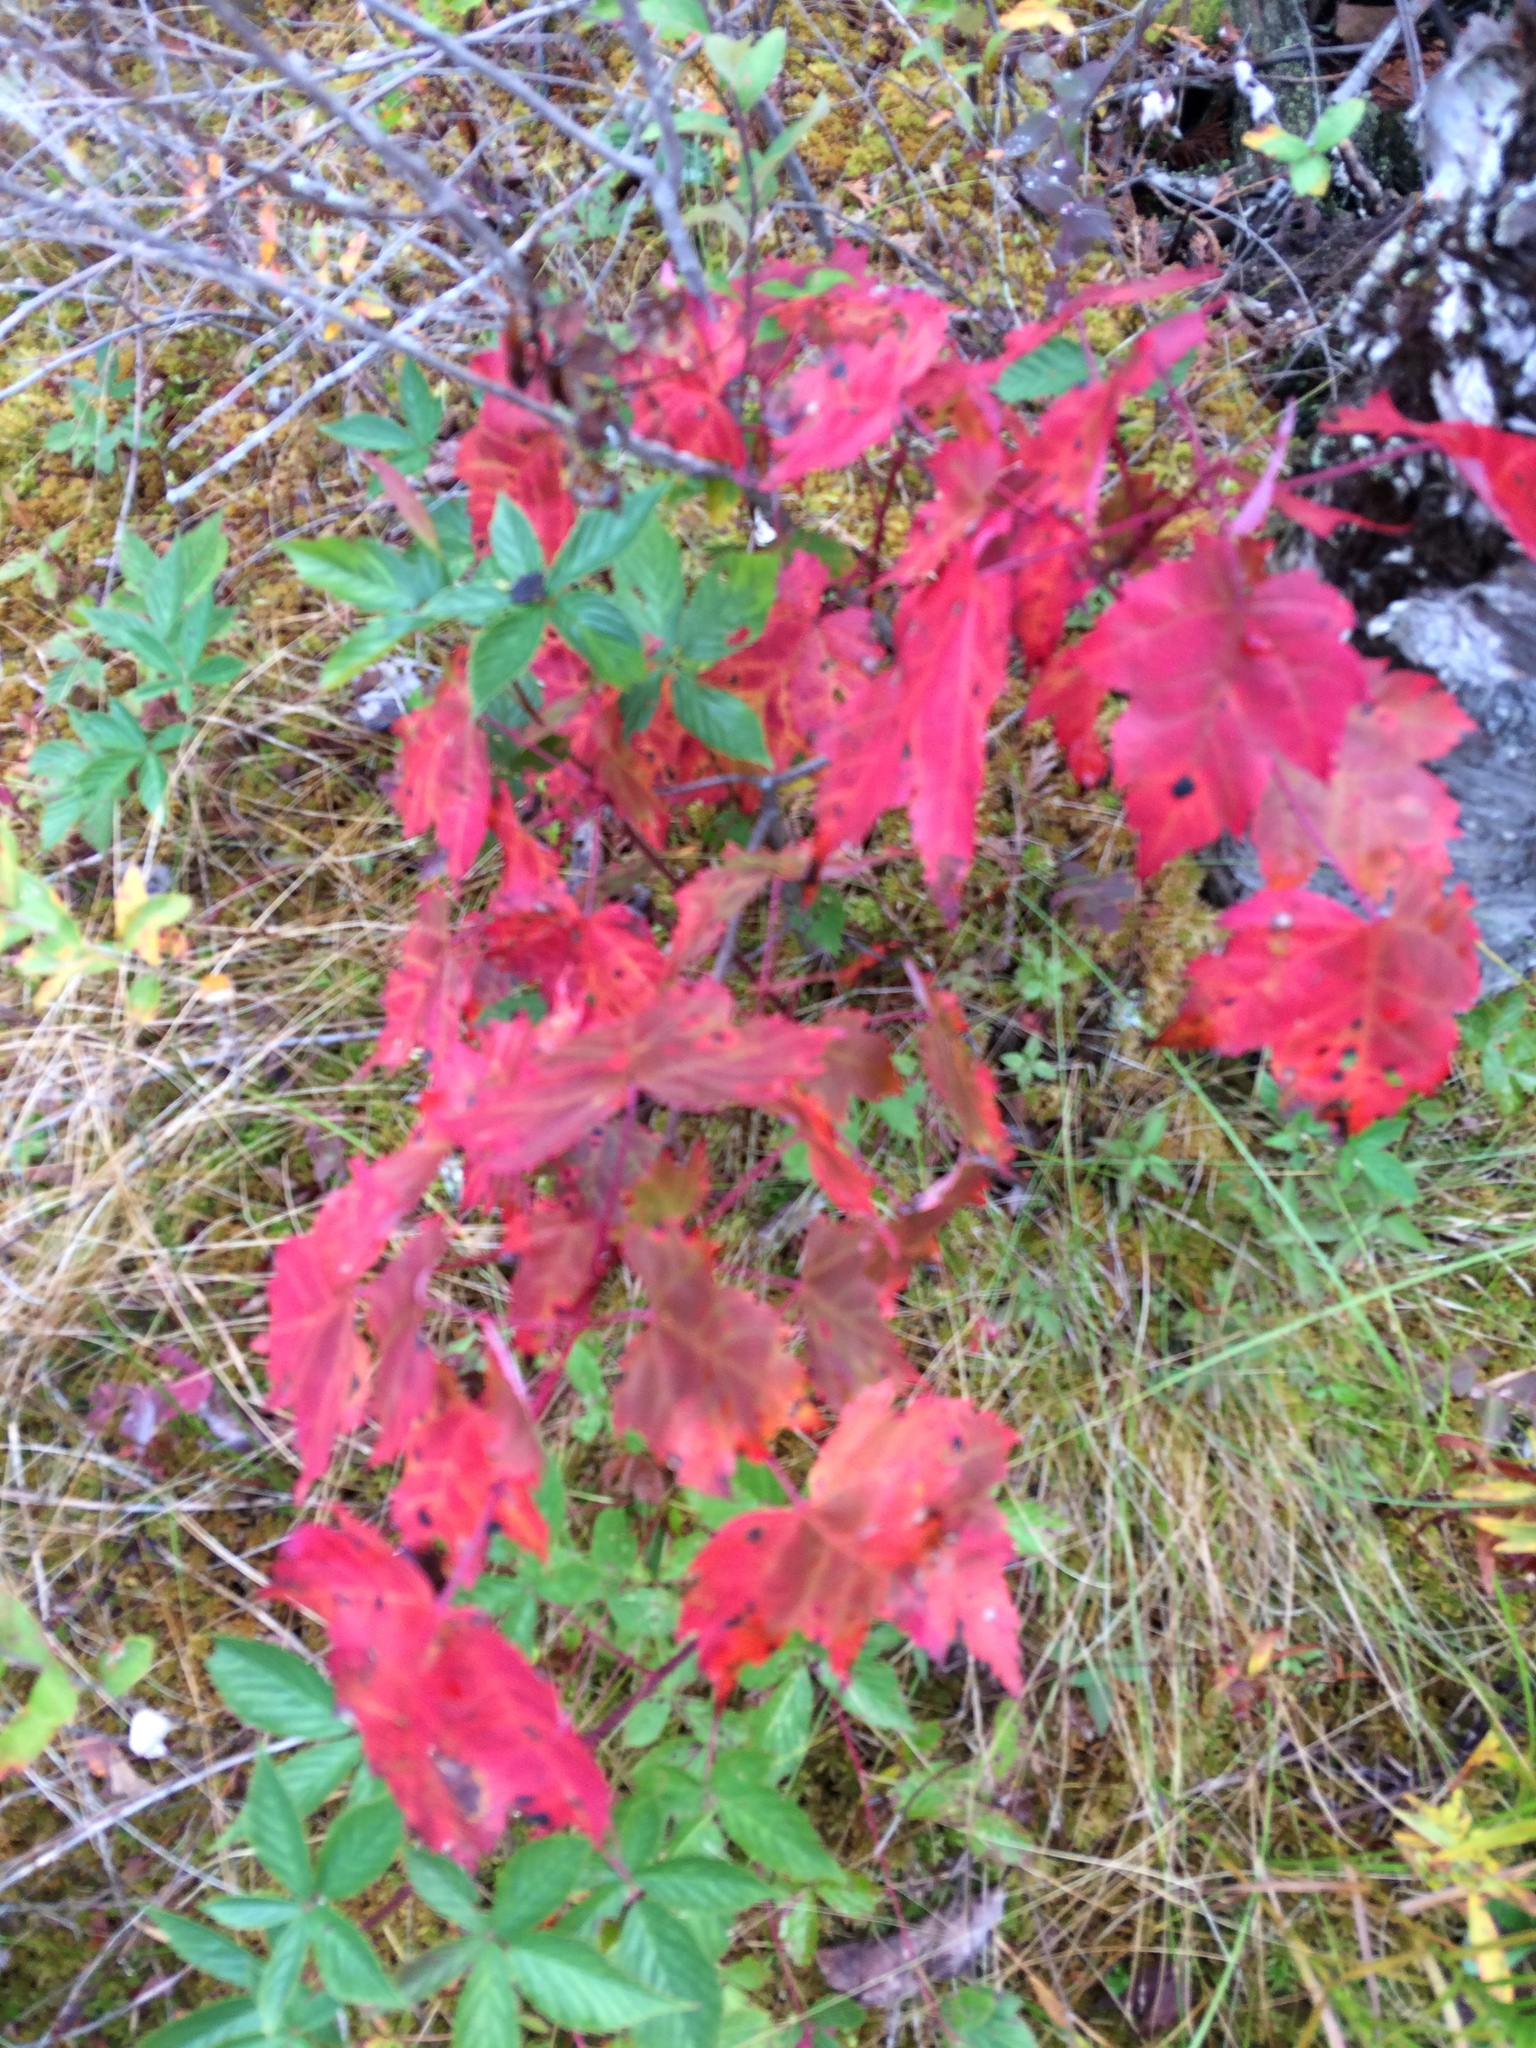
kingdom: Plantae
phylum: Tracheophyta
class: Magnoliopsida
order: Sapindales
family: Sapindaceae
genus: Acer
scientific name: Acer rubrum
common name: Red maple
